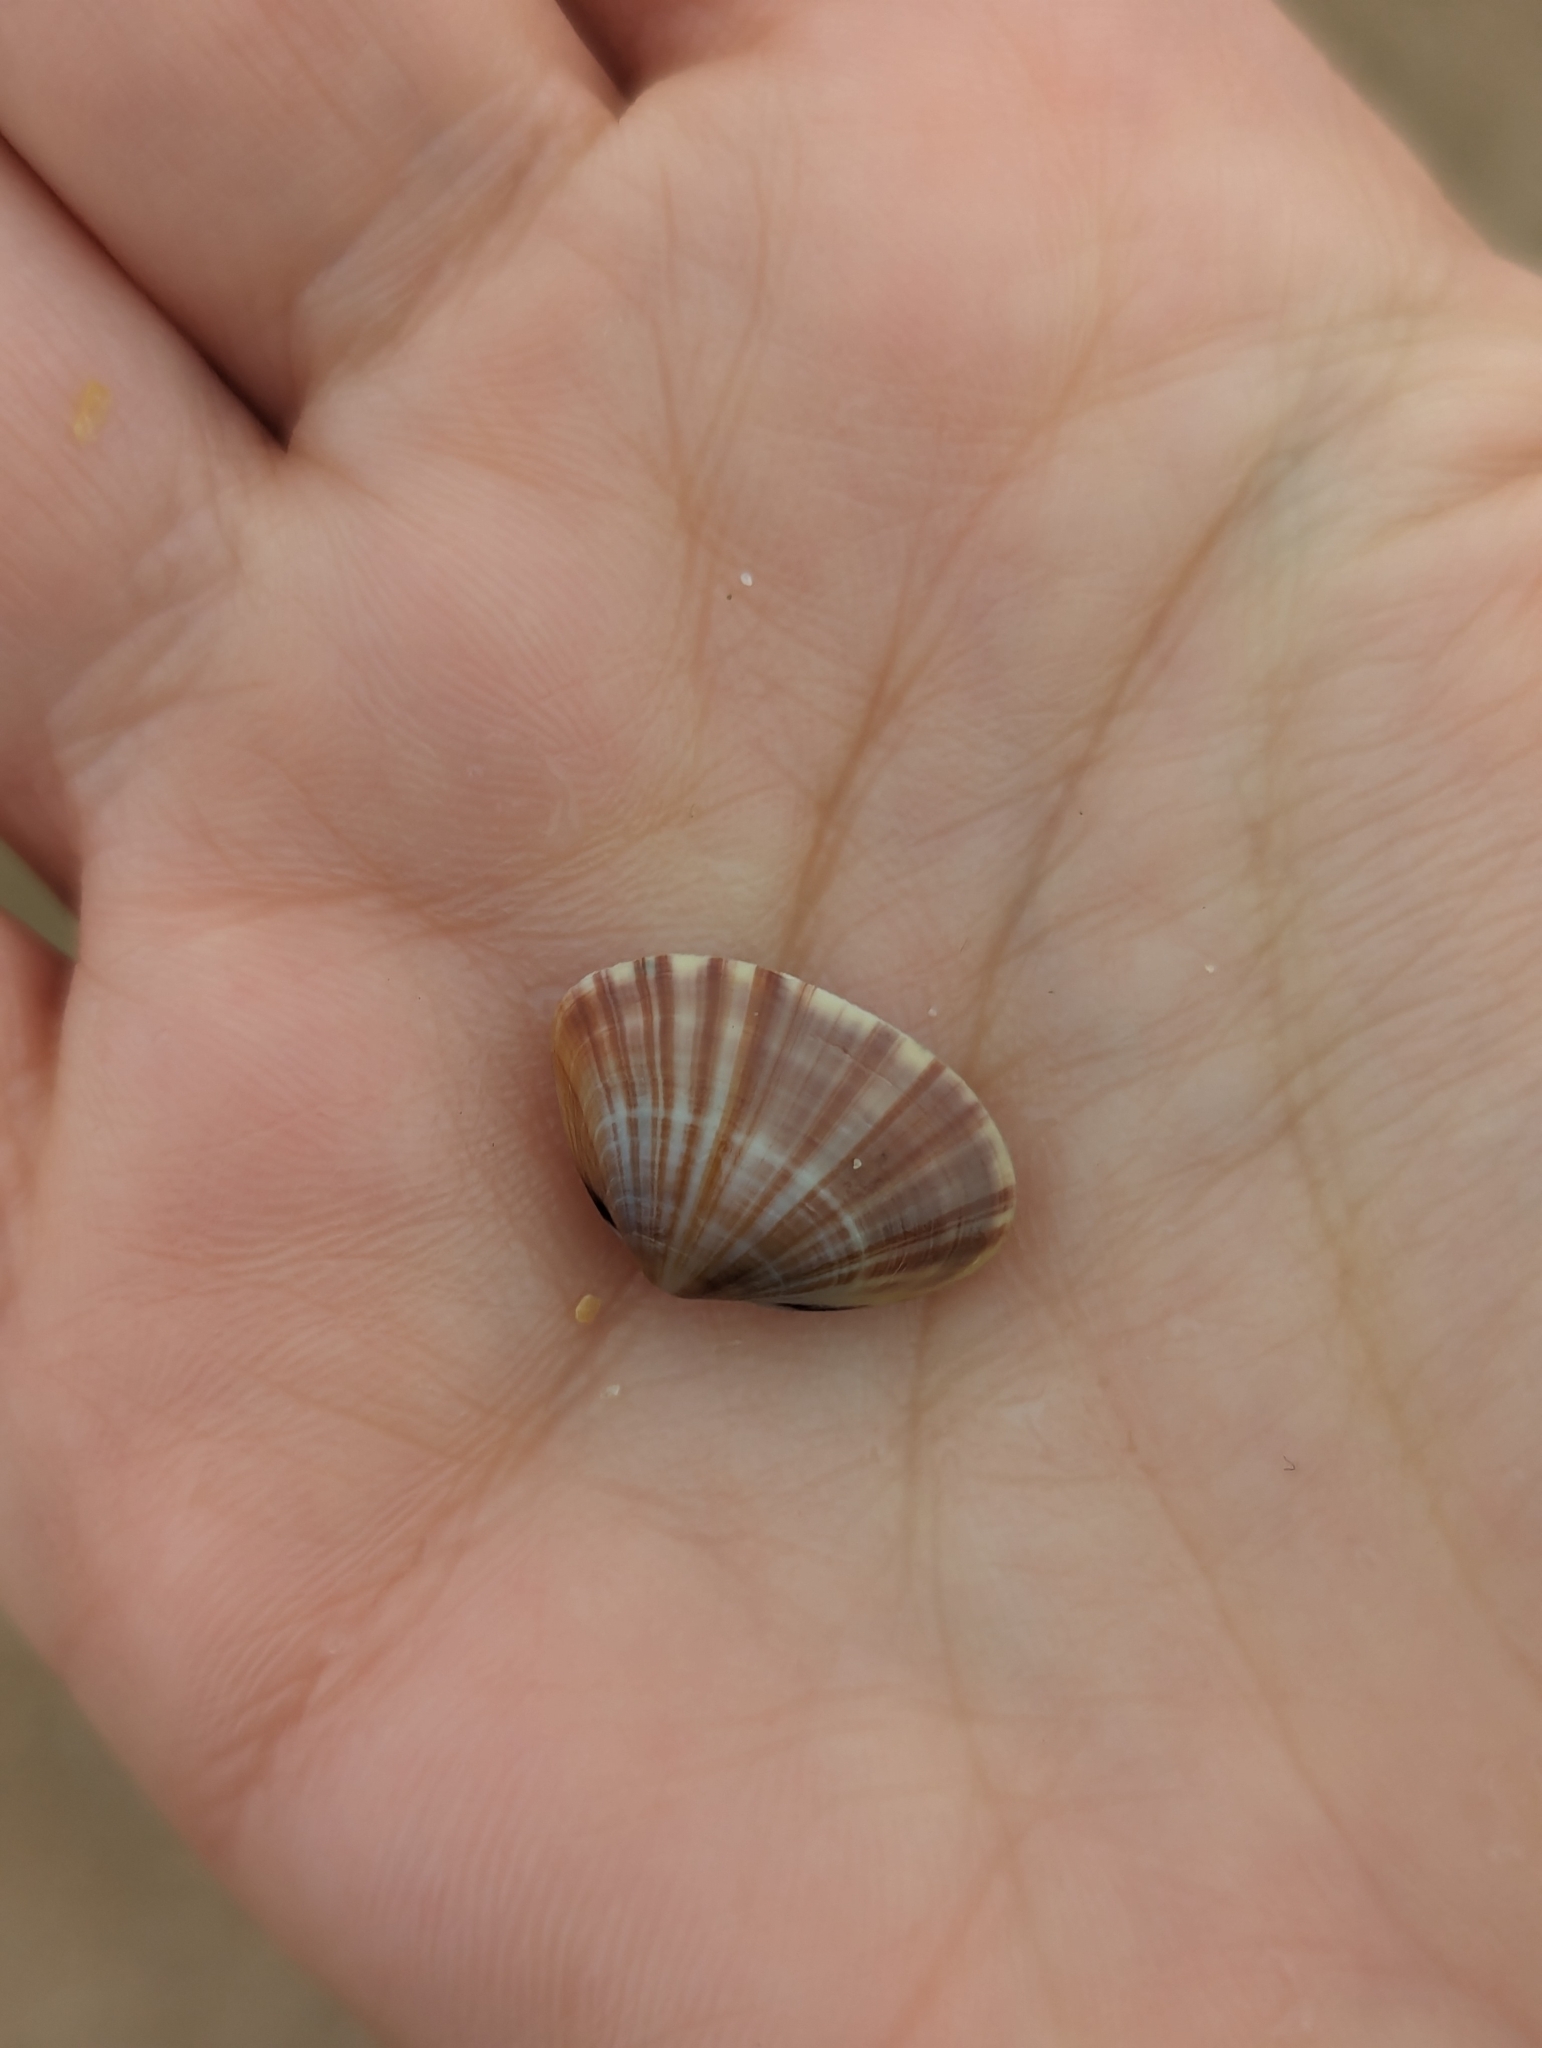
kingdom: Animalia
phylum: Mollusca
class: Bivalvia
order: Venerida
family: Mactridae
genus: Mactra
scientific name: Mactra chinensis
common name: Chinese surf clam
